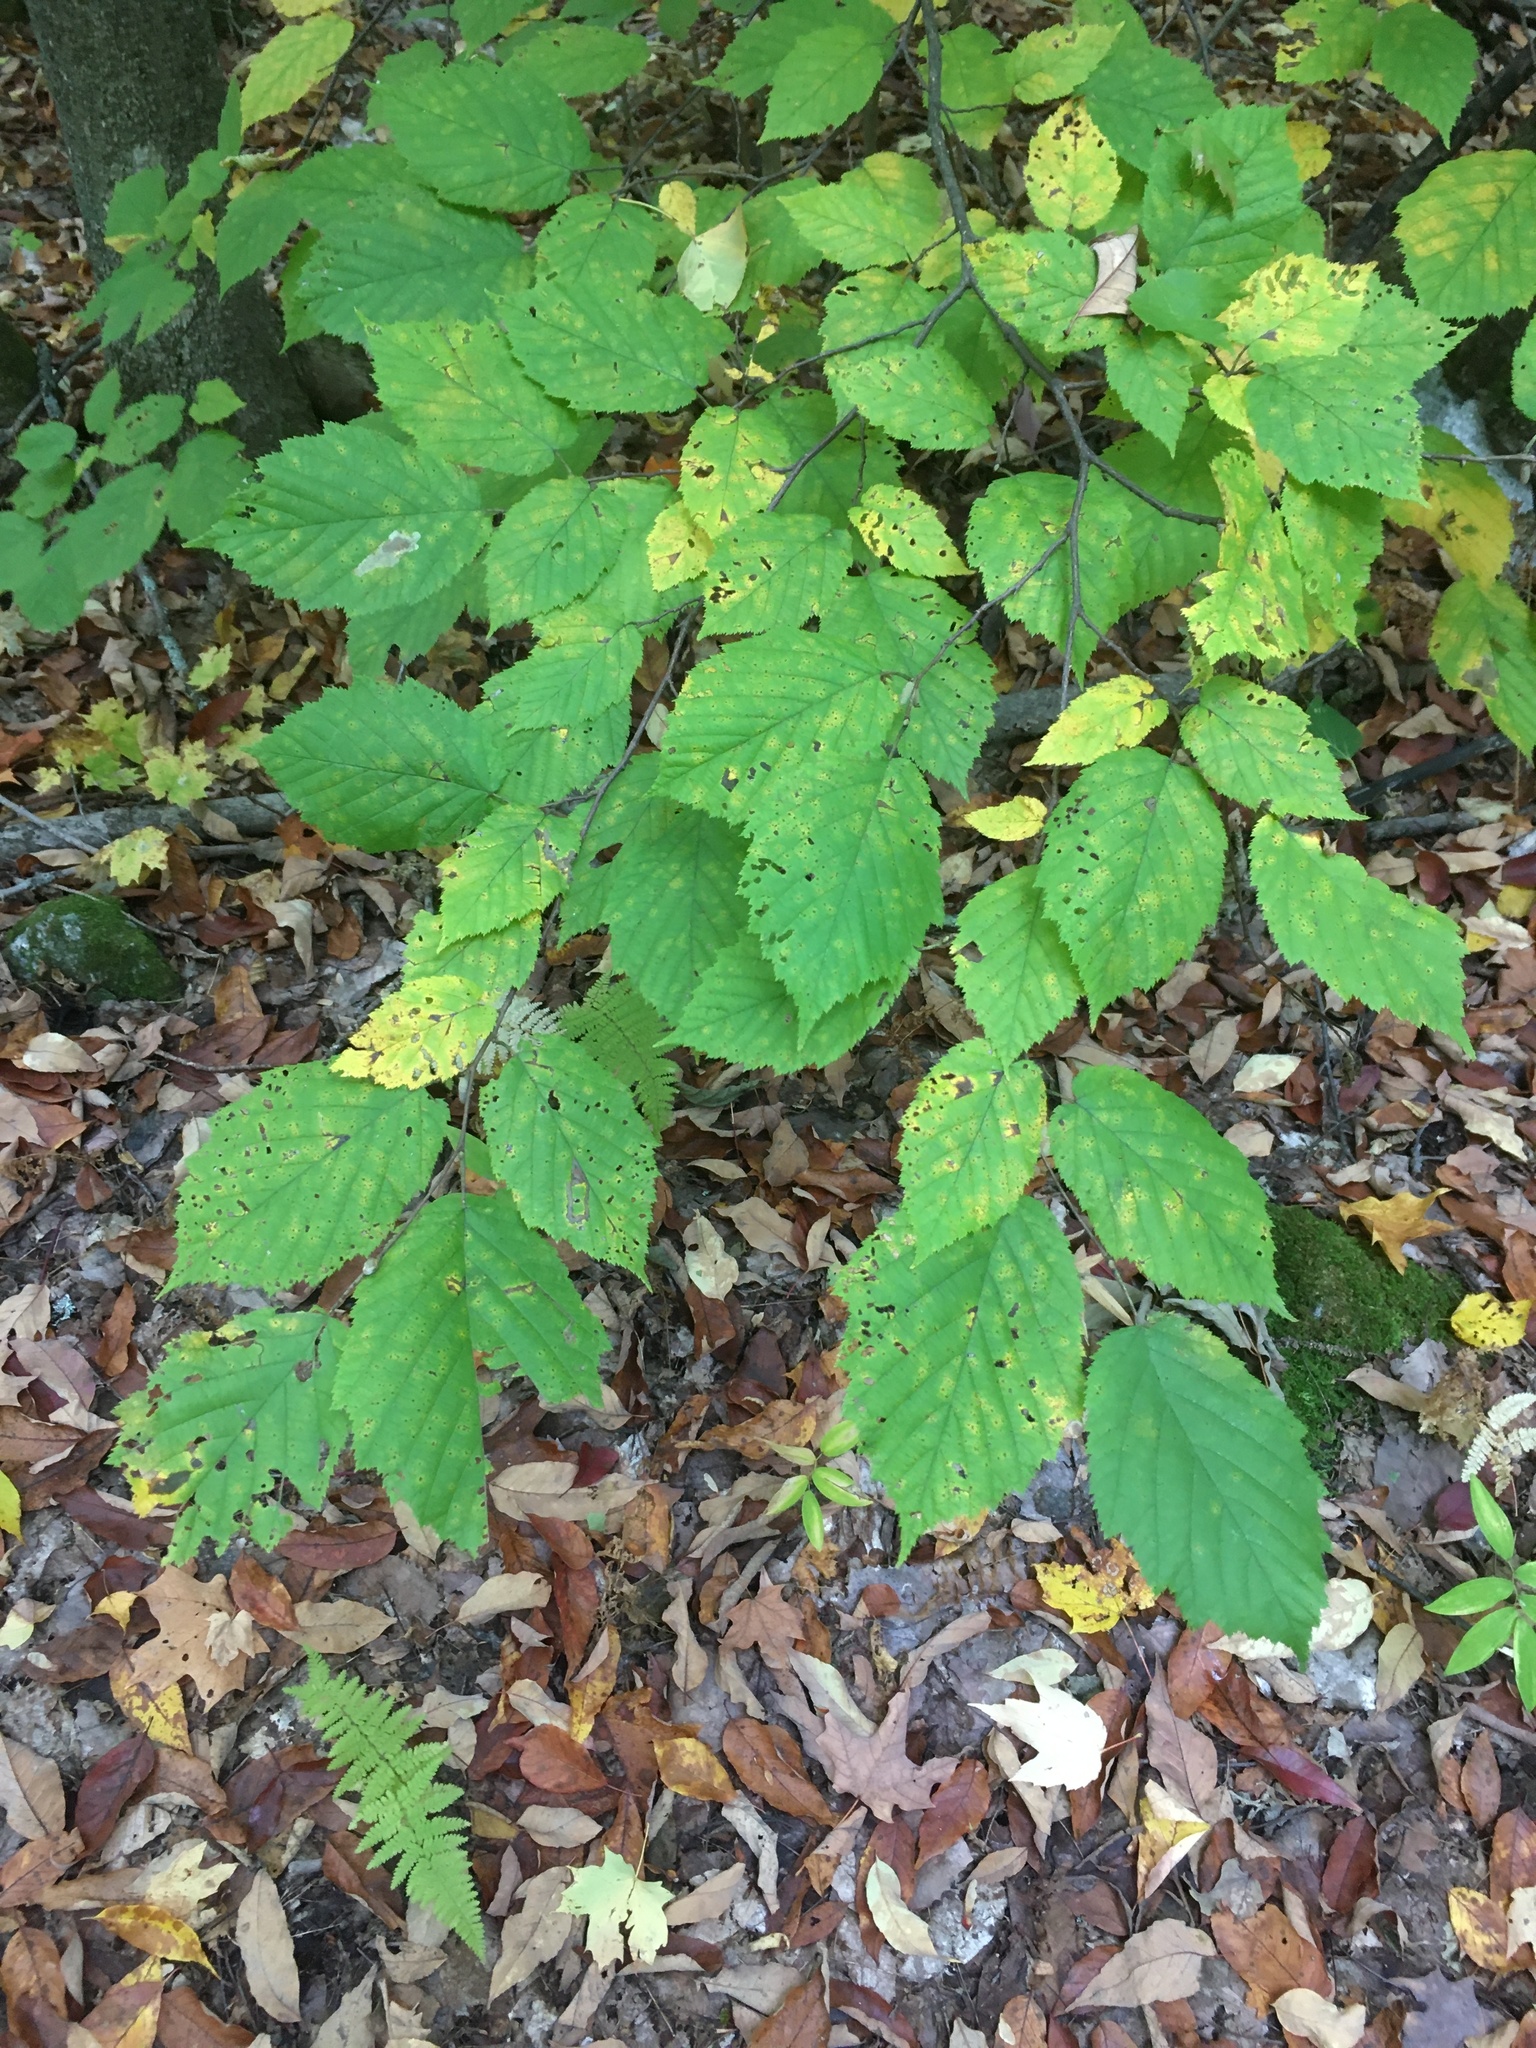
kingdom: Plantae
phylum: Tracheophyta
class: Magnoliopsida
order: Fagales
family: Betulaceae
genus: Corylus
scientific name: Corylus cornuta
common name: Beaked hazel
